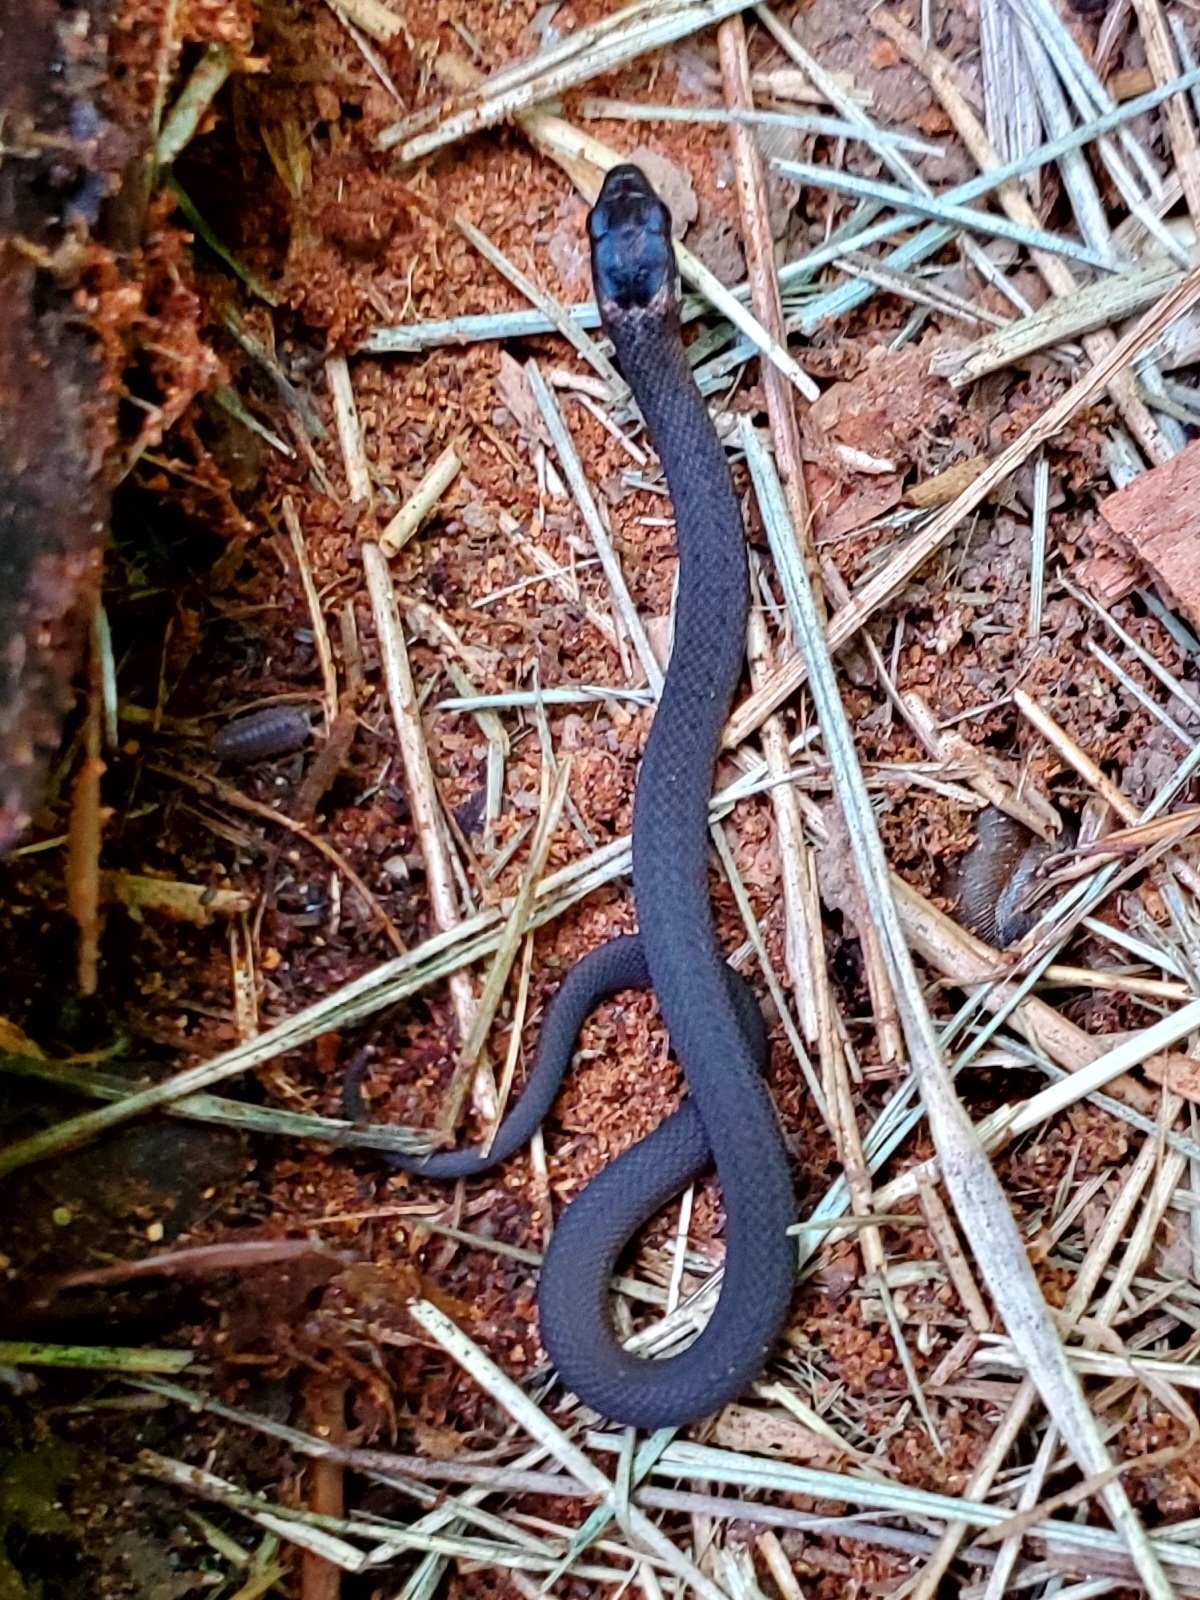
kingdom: Animalia
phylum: Chordata
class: Squamata
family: Colubridae
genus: Diadophis
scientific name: Diadophis punctatus
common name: Ringneck snake
